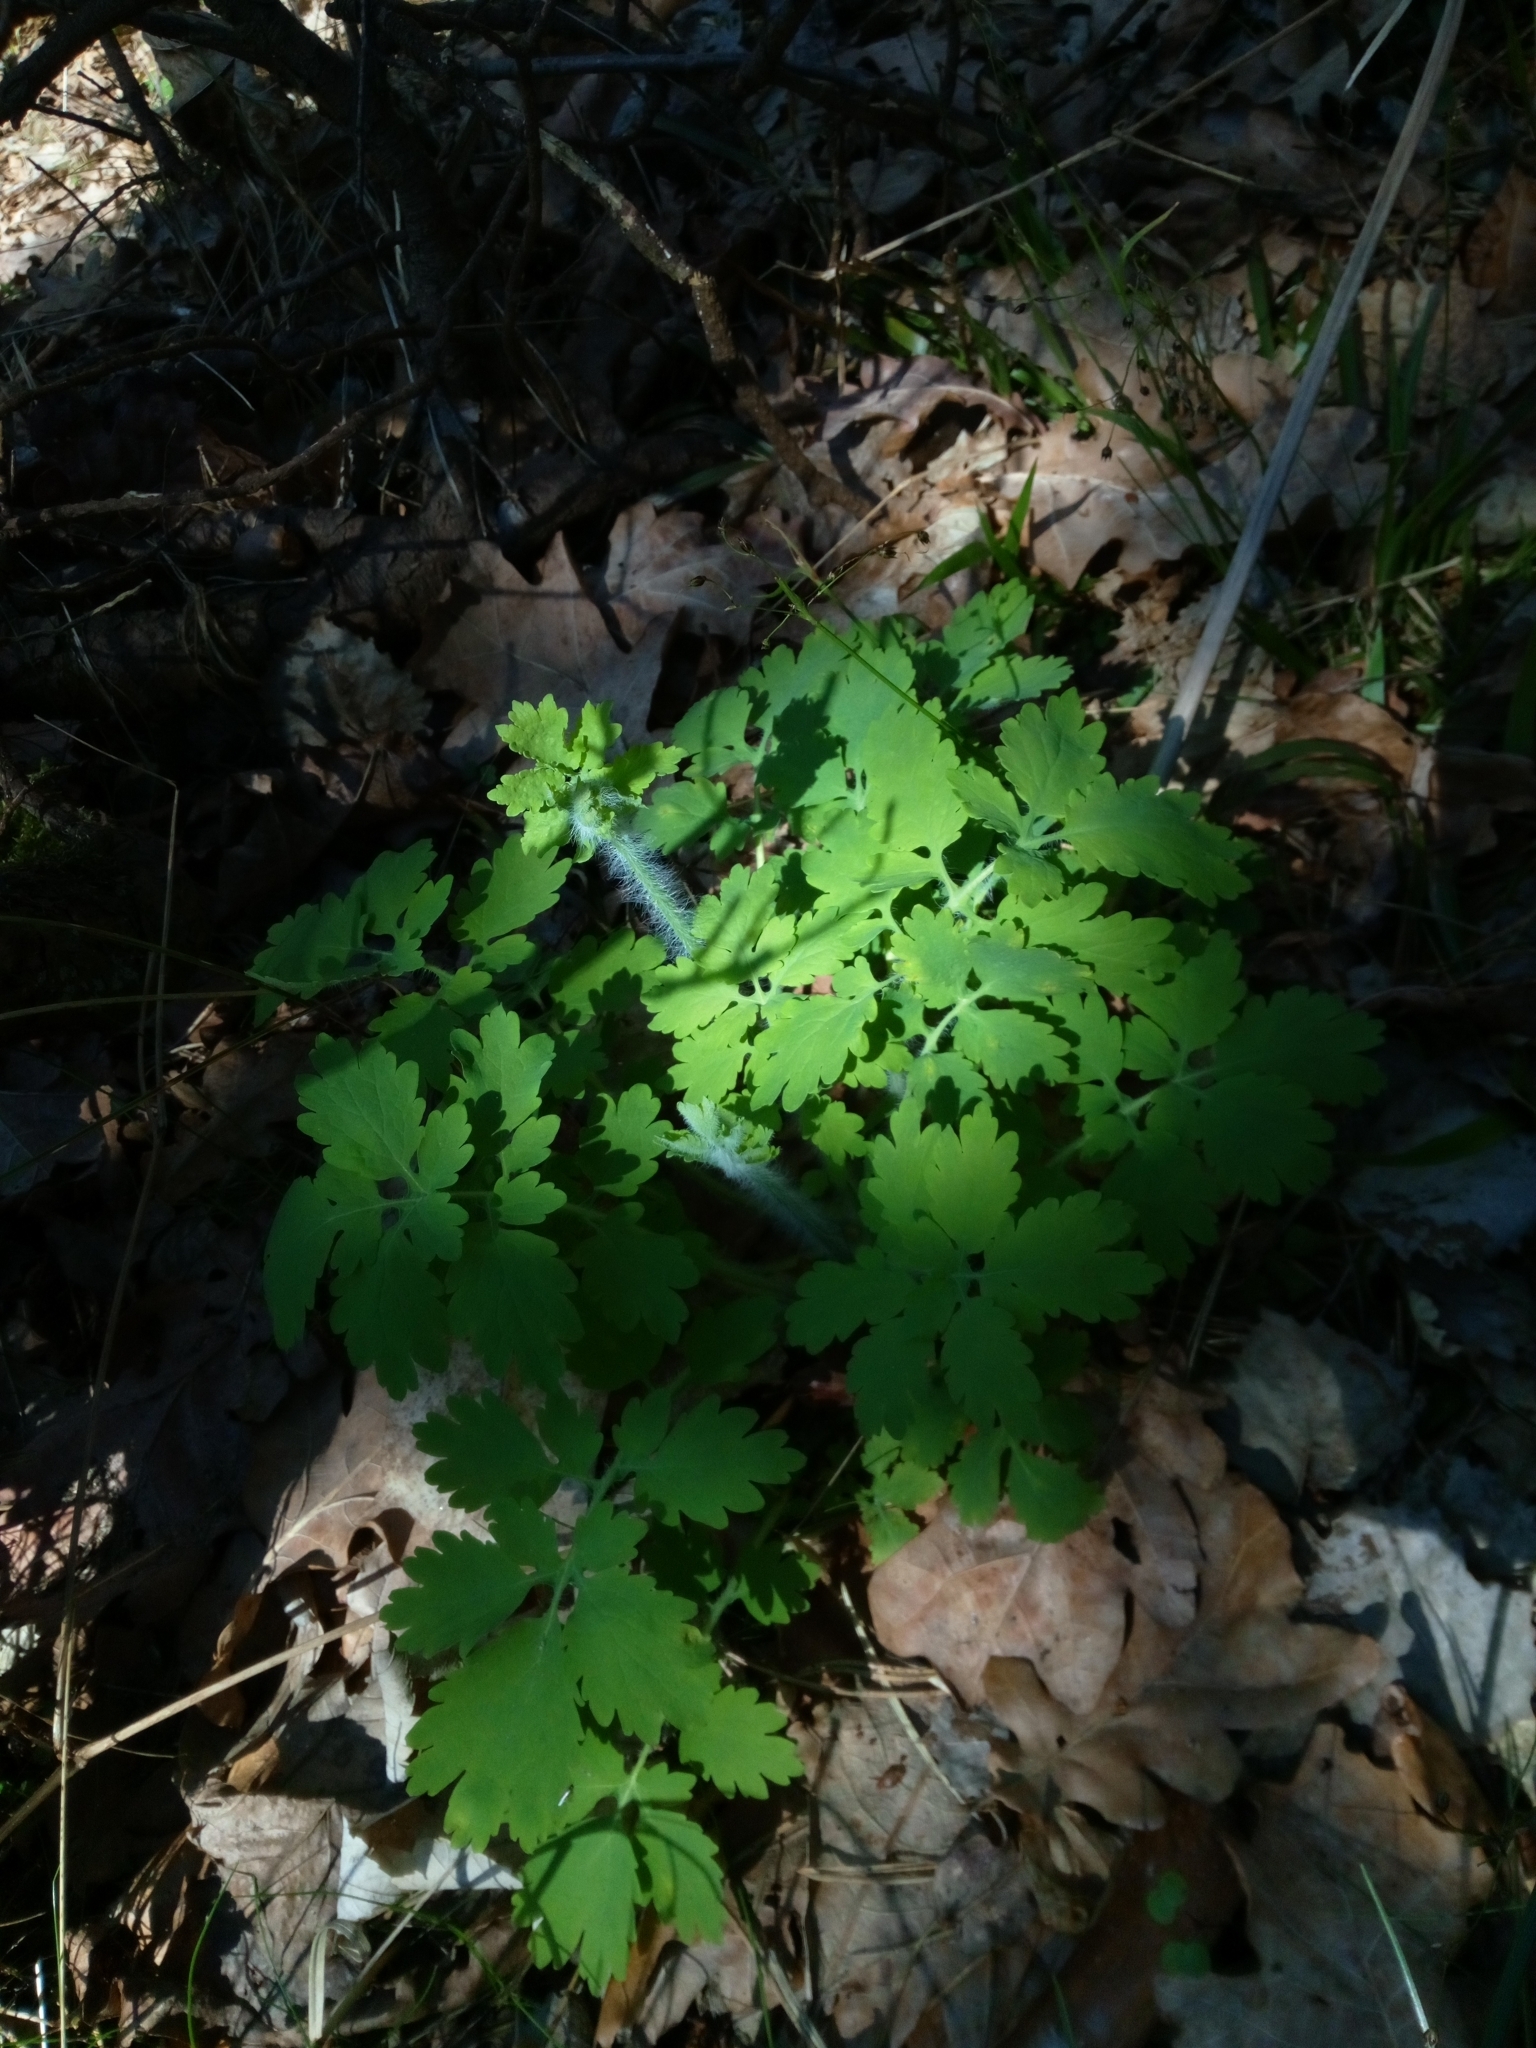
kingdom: Plantae
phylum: Tracheophyta
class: Magnoliopsida
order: Ranunculales
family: Papaveraceae
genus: Chelidonium
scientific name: Chelidonium majus
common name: Greater celandine
